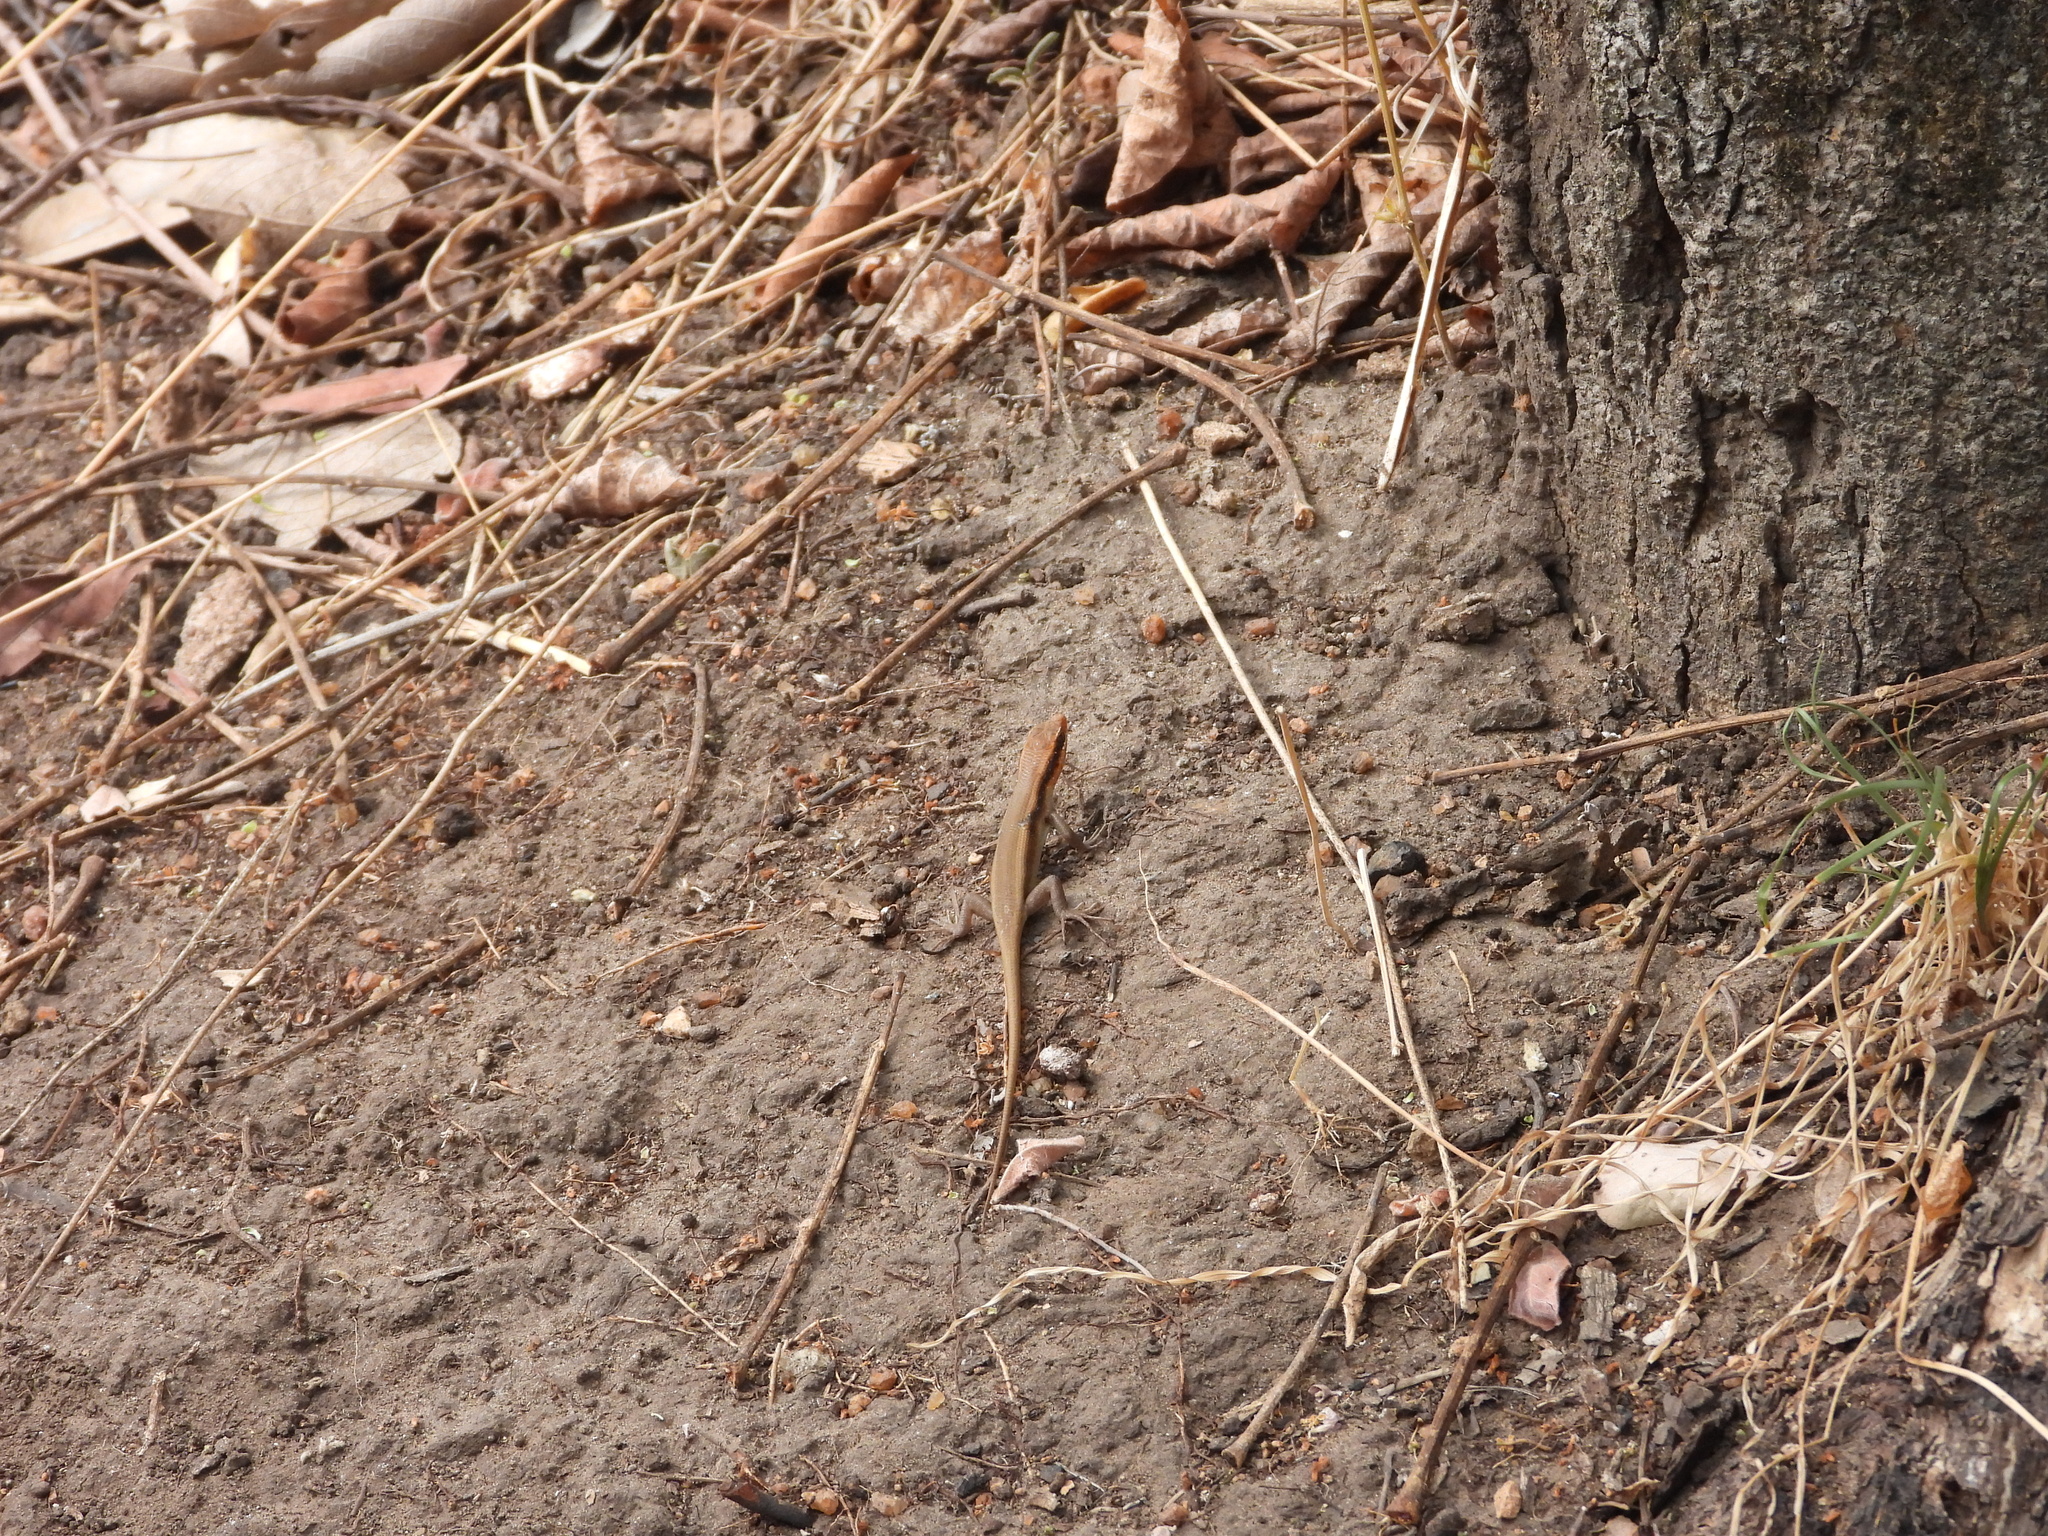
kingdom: Animalia
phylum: Chordata
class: Squamata
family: Scincidae
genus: Trachylepis
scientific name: Trachylepis wahlbergii
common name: Wahlberg’s striped skink
